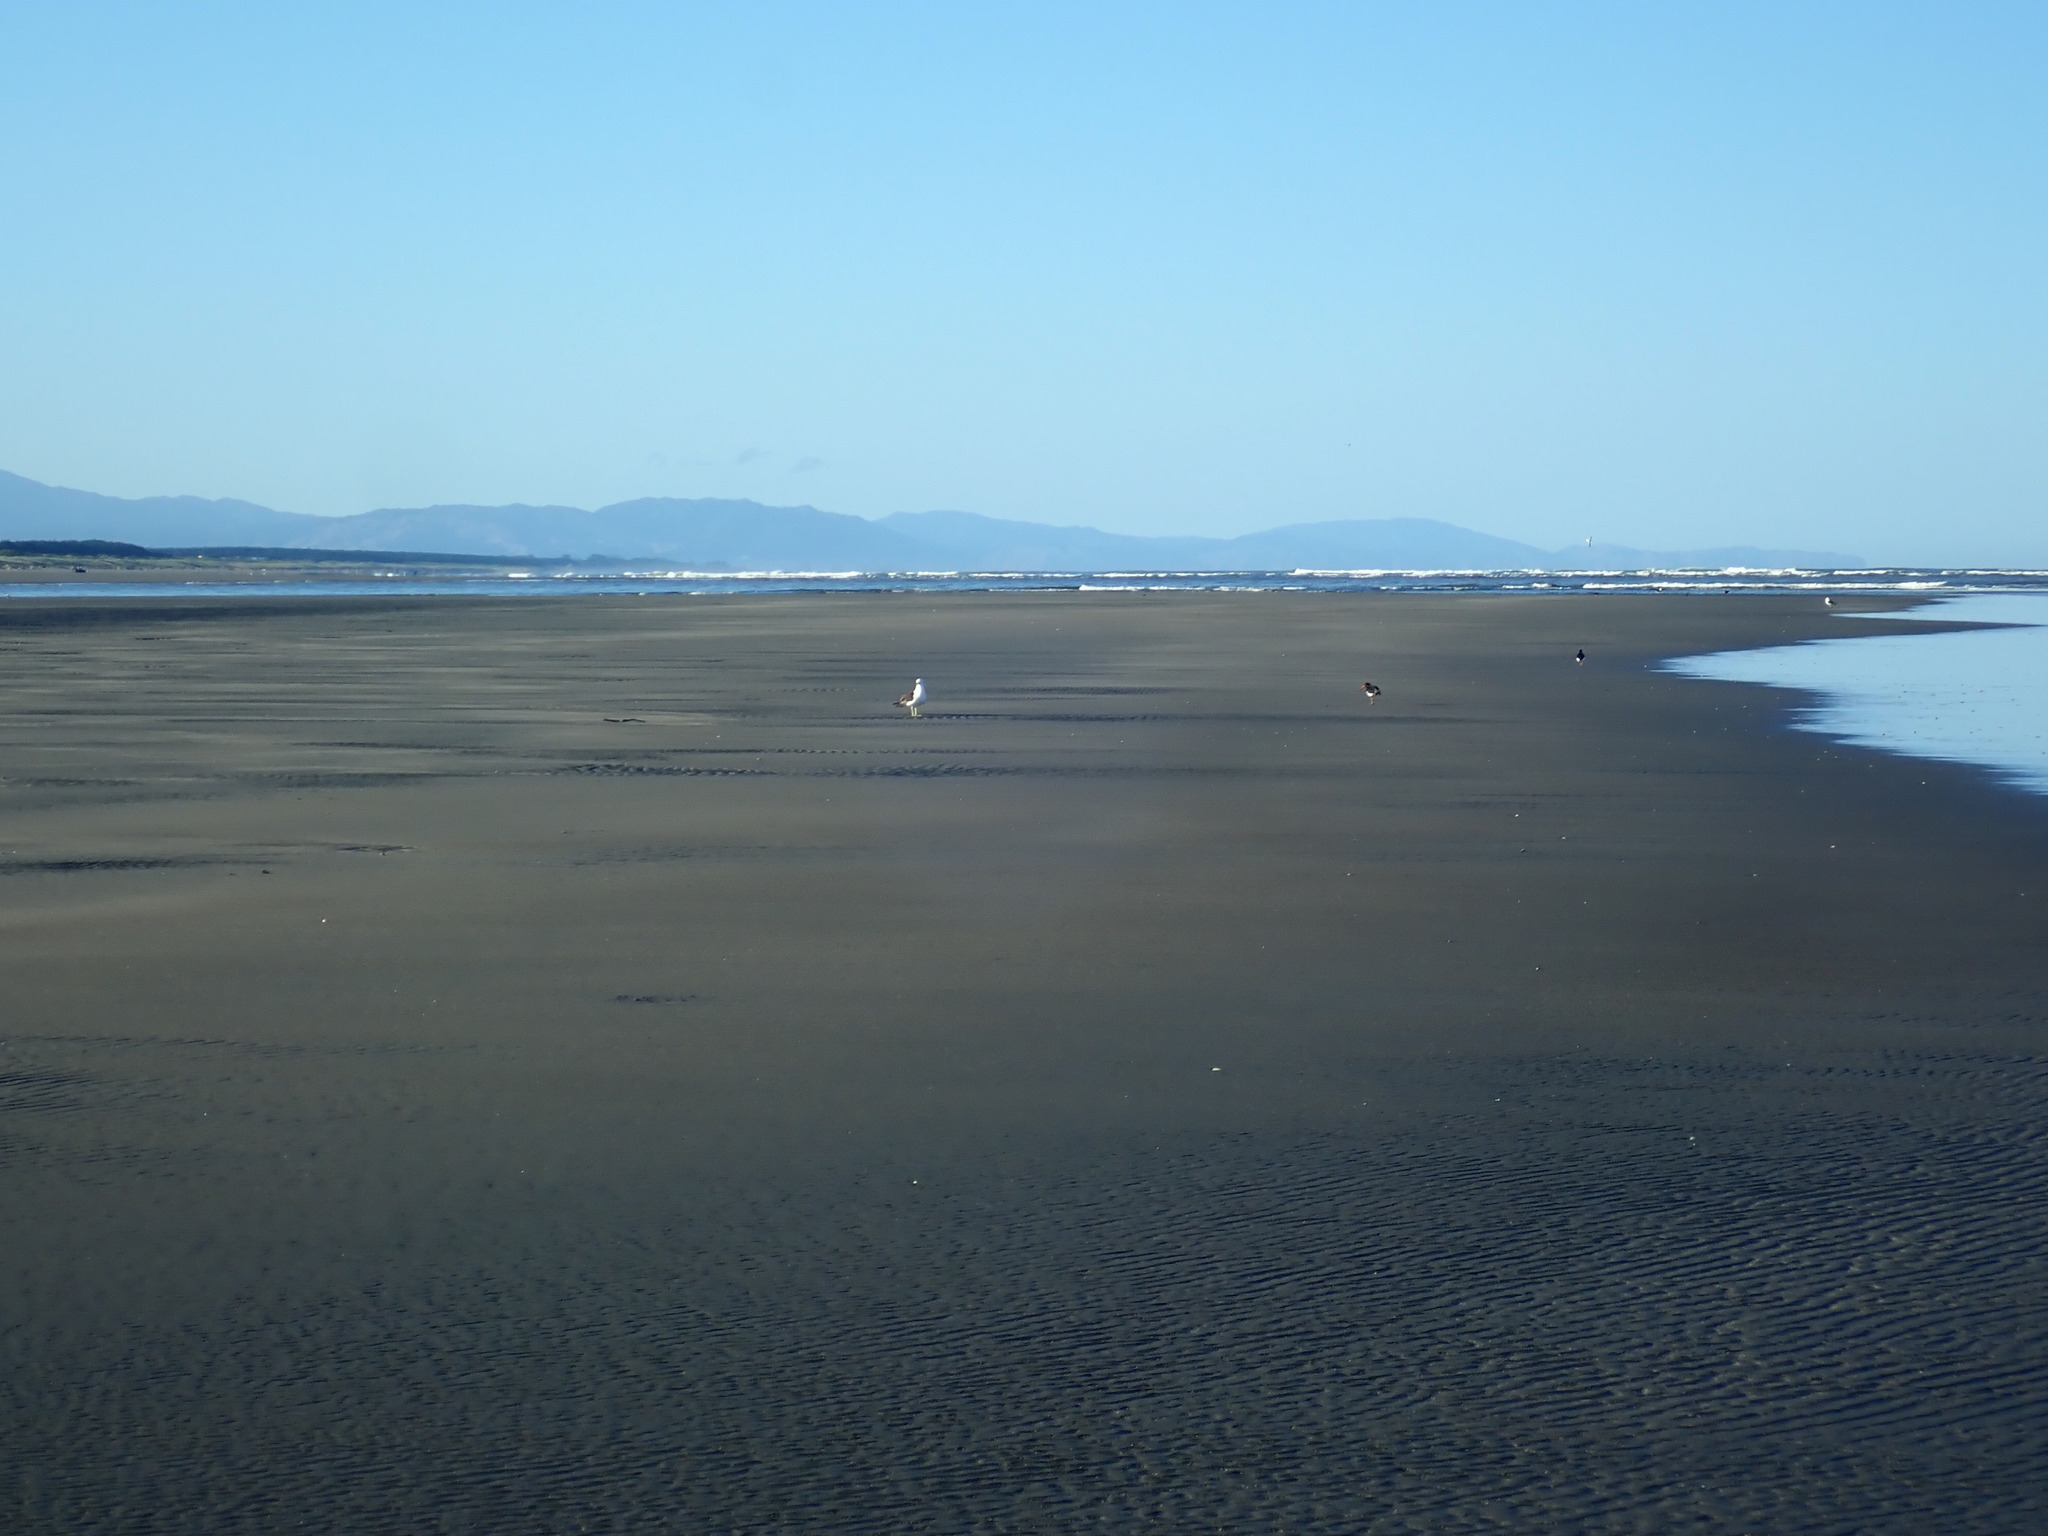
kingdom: Animalia
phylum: Chordata
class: Aves
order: Charadriiformes
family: Haematopodidae
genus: Haematopus
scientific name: Haematopus finschi
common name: South island oystercatcher
